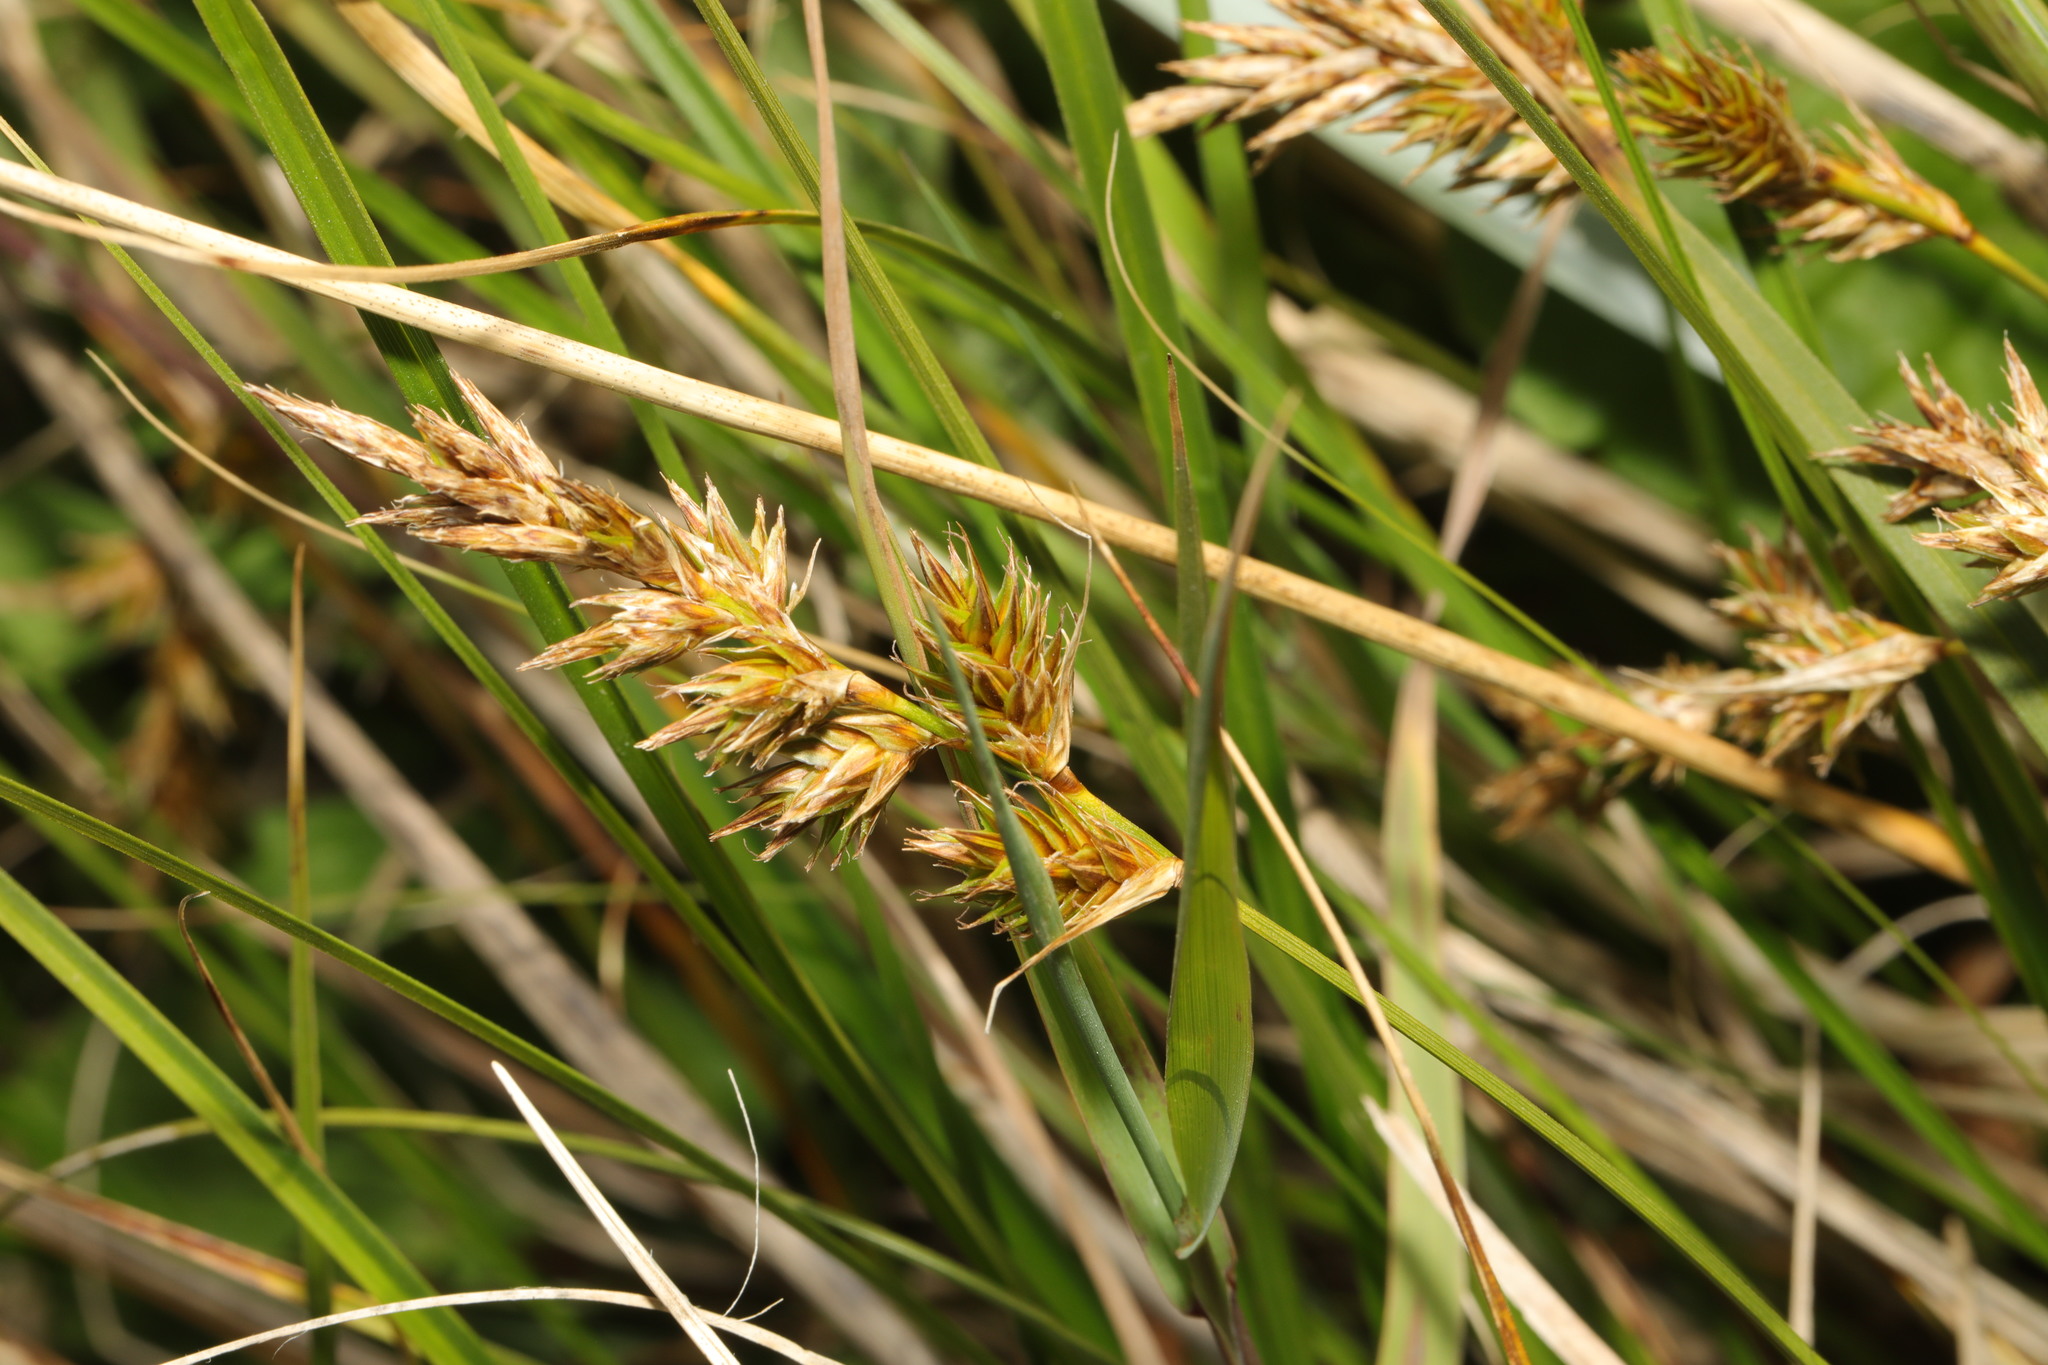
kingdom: Plantae
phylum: Tracheophyta
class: Liliopsida
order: Poales
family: Cyperaceae
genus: Carex
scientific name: Carex arenaria
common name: Sand sedge
